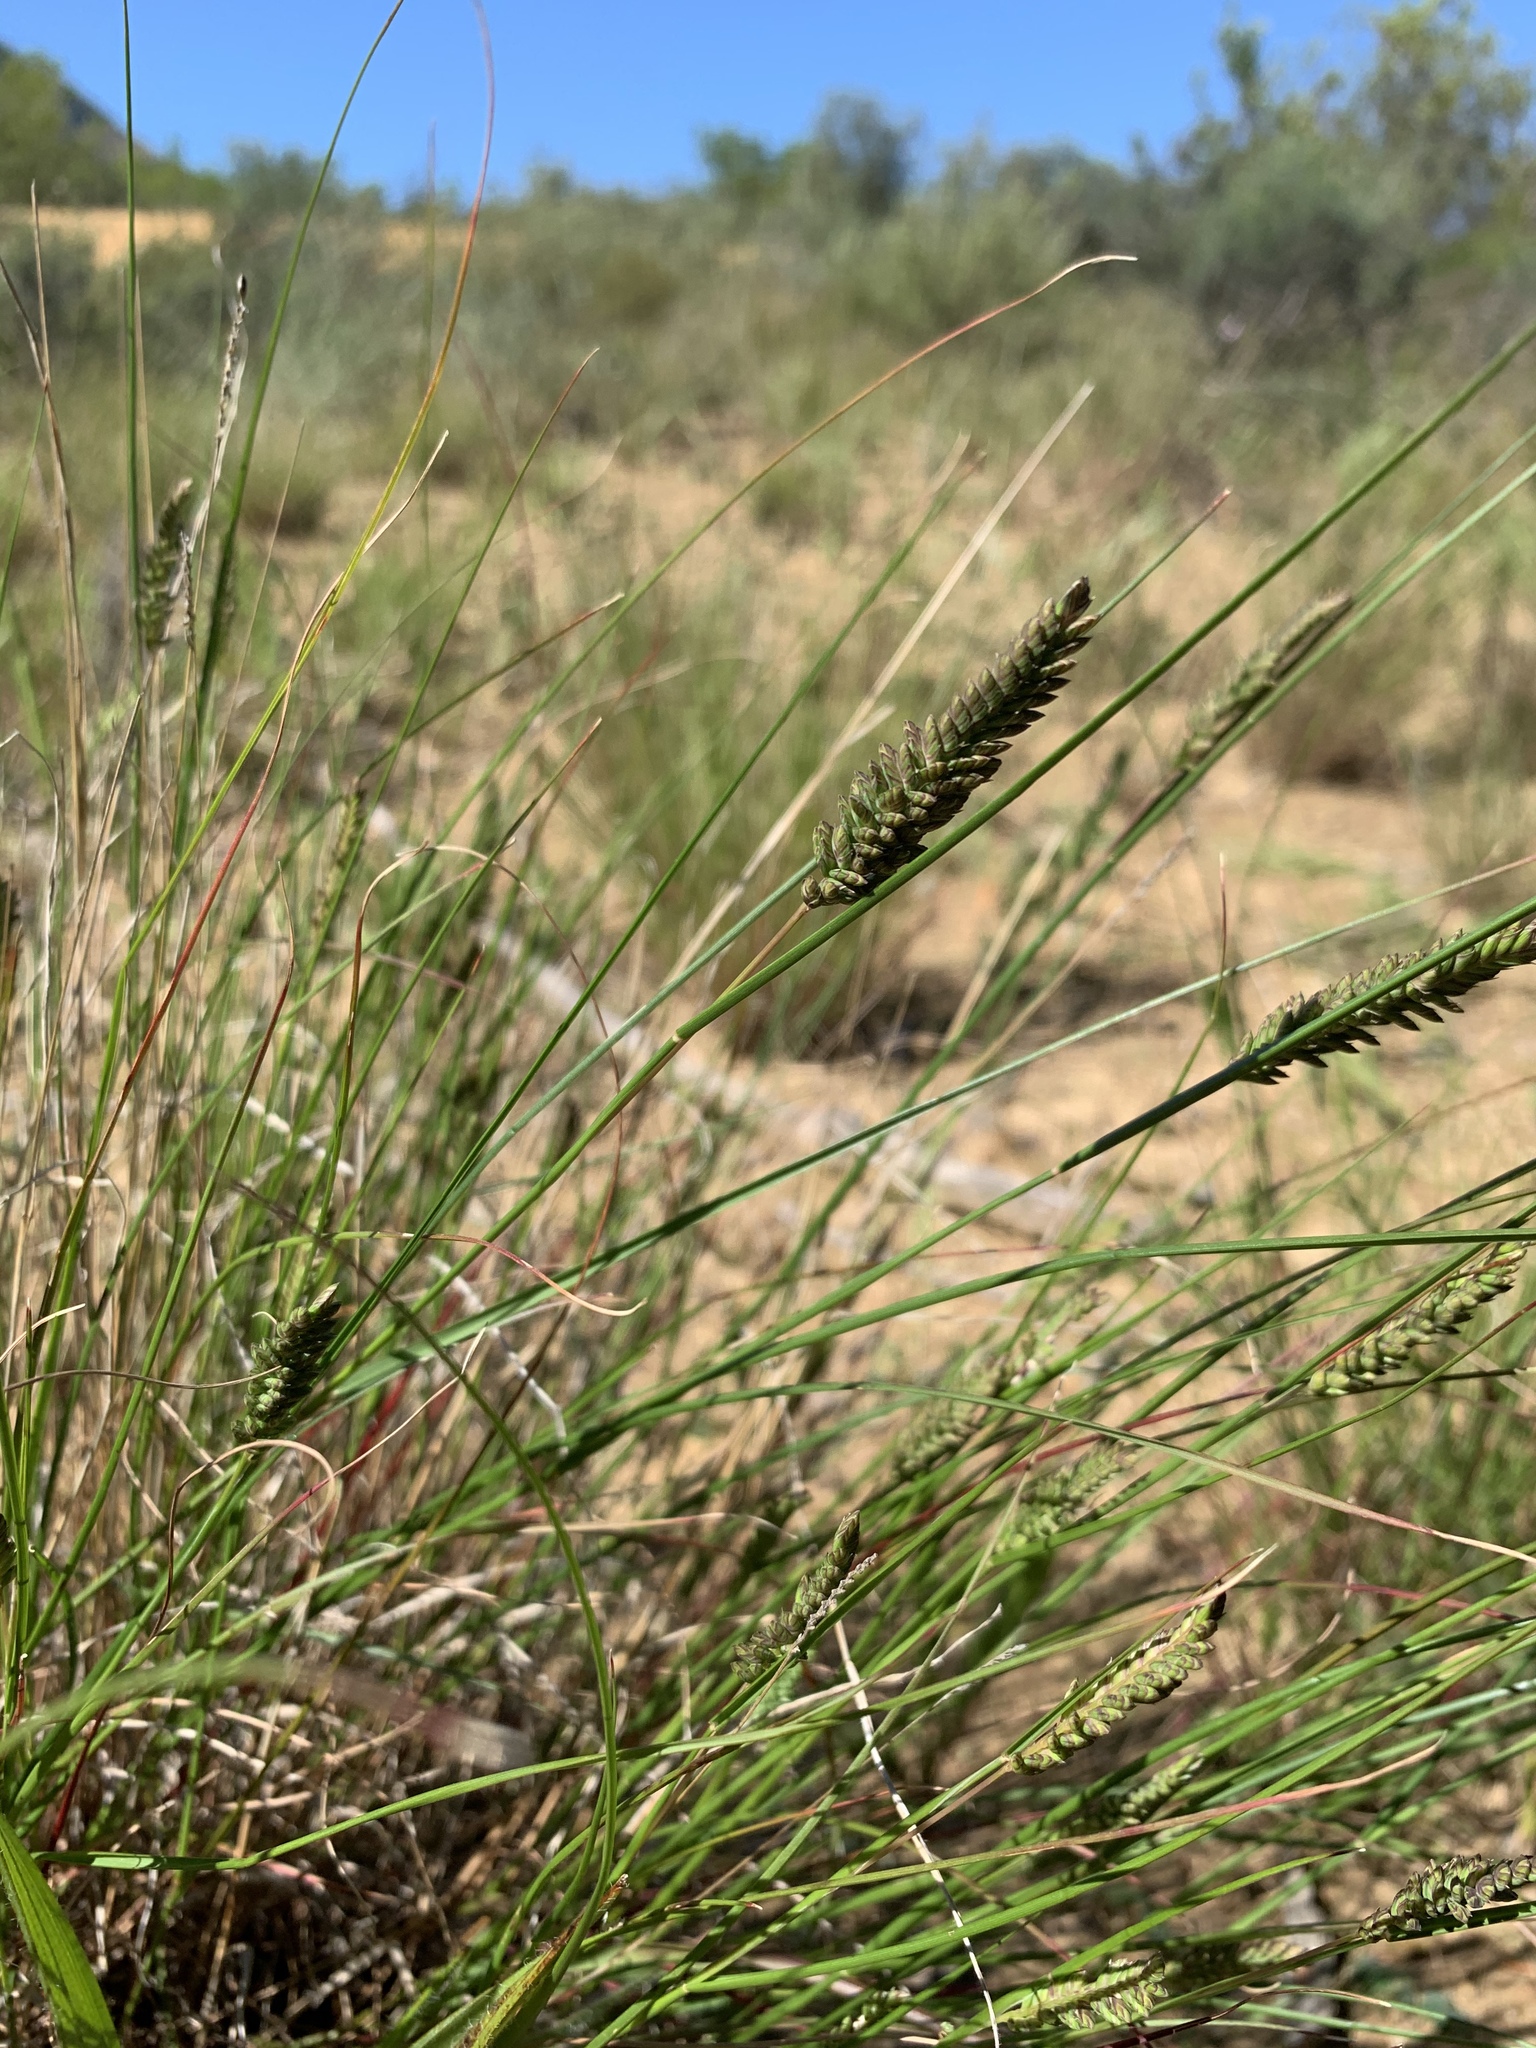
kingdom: Plantae
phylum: Tracheophyta
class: Liliopsida
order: Poales
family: Poaceae
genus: Tribolium
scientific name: Tribolium uniolae
